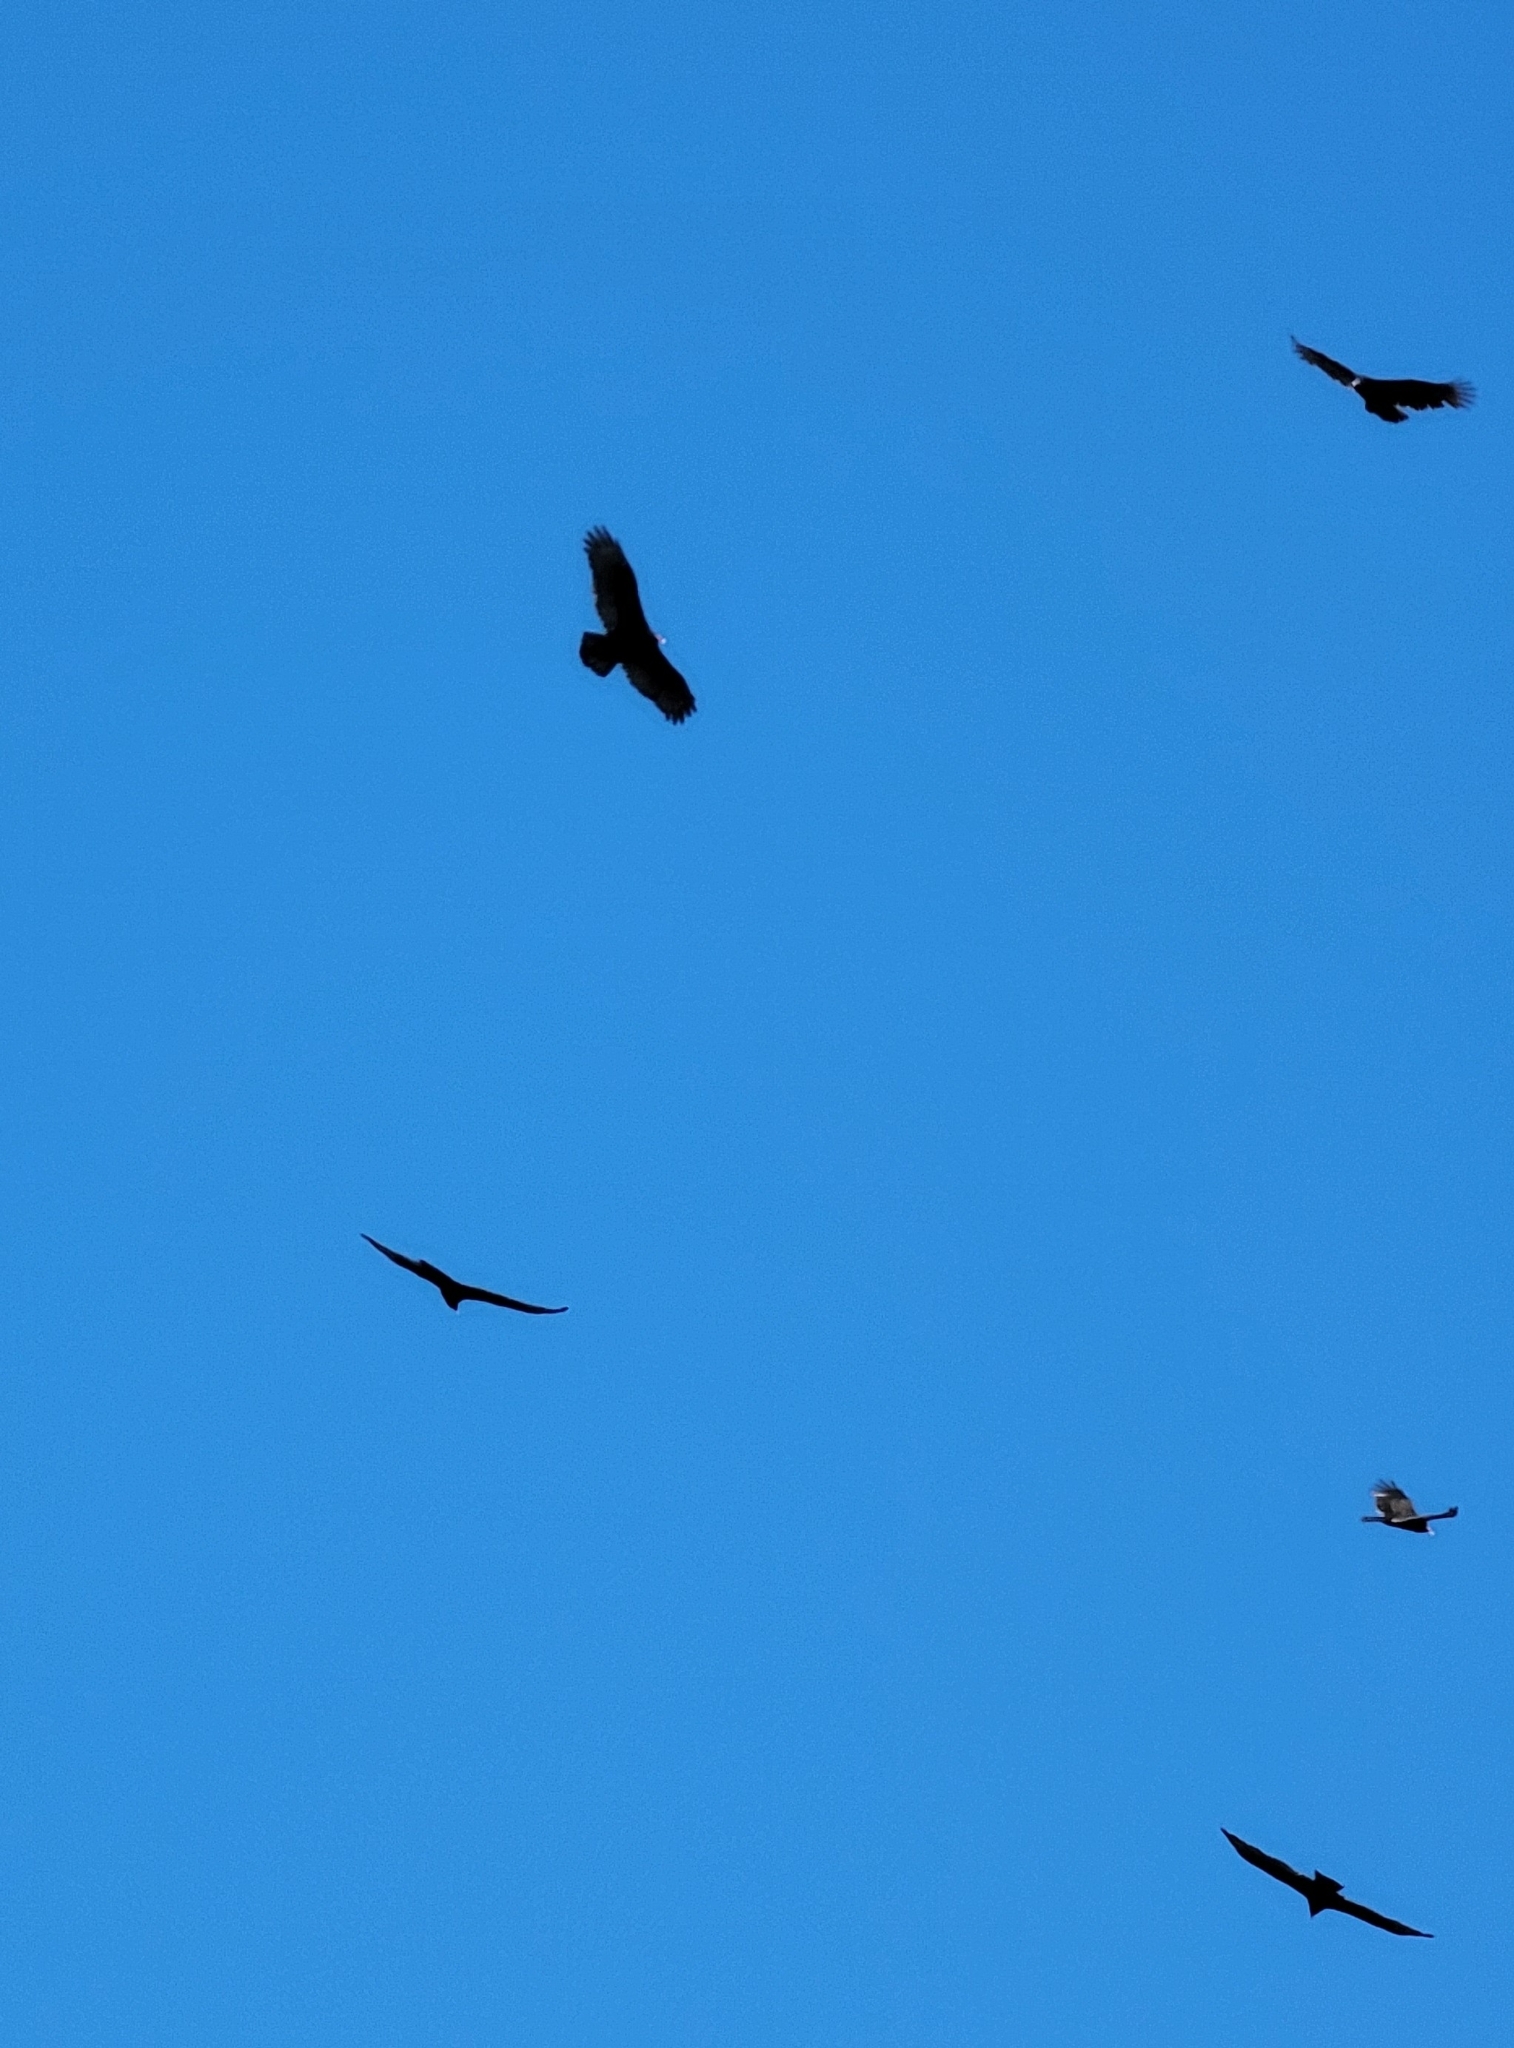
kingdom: Animalia
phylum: Chordata
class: Aves
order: Accipitriformes
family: Cathartidae
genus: Cathartes
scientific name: Cathartes aura
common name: Turkey vulture
